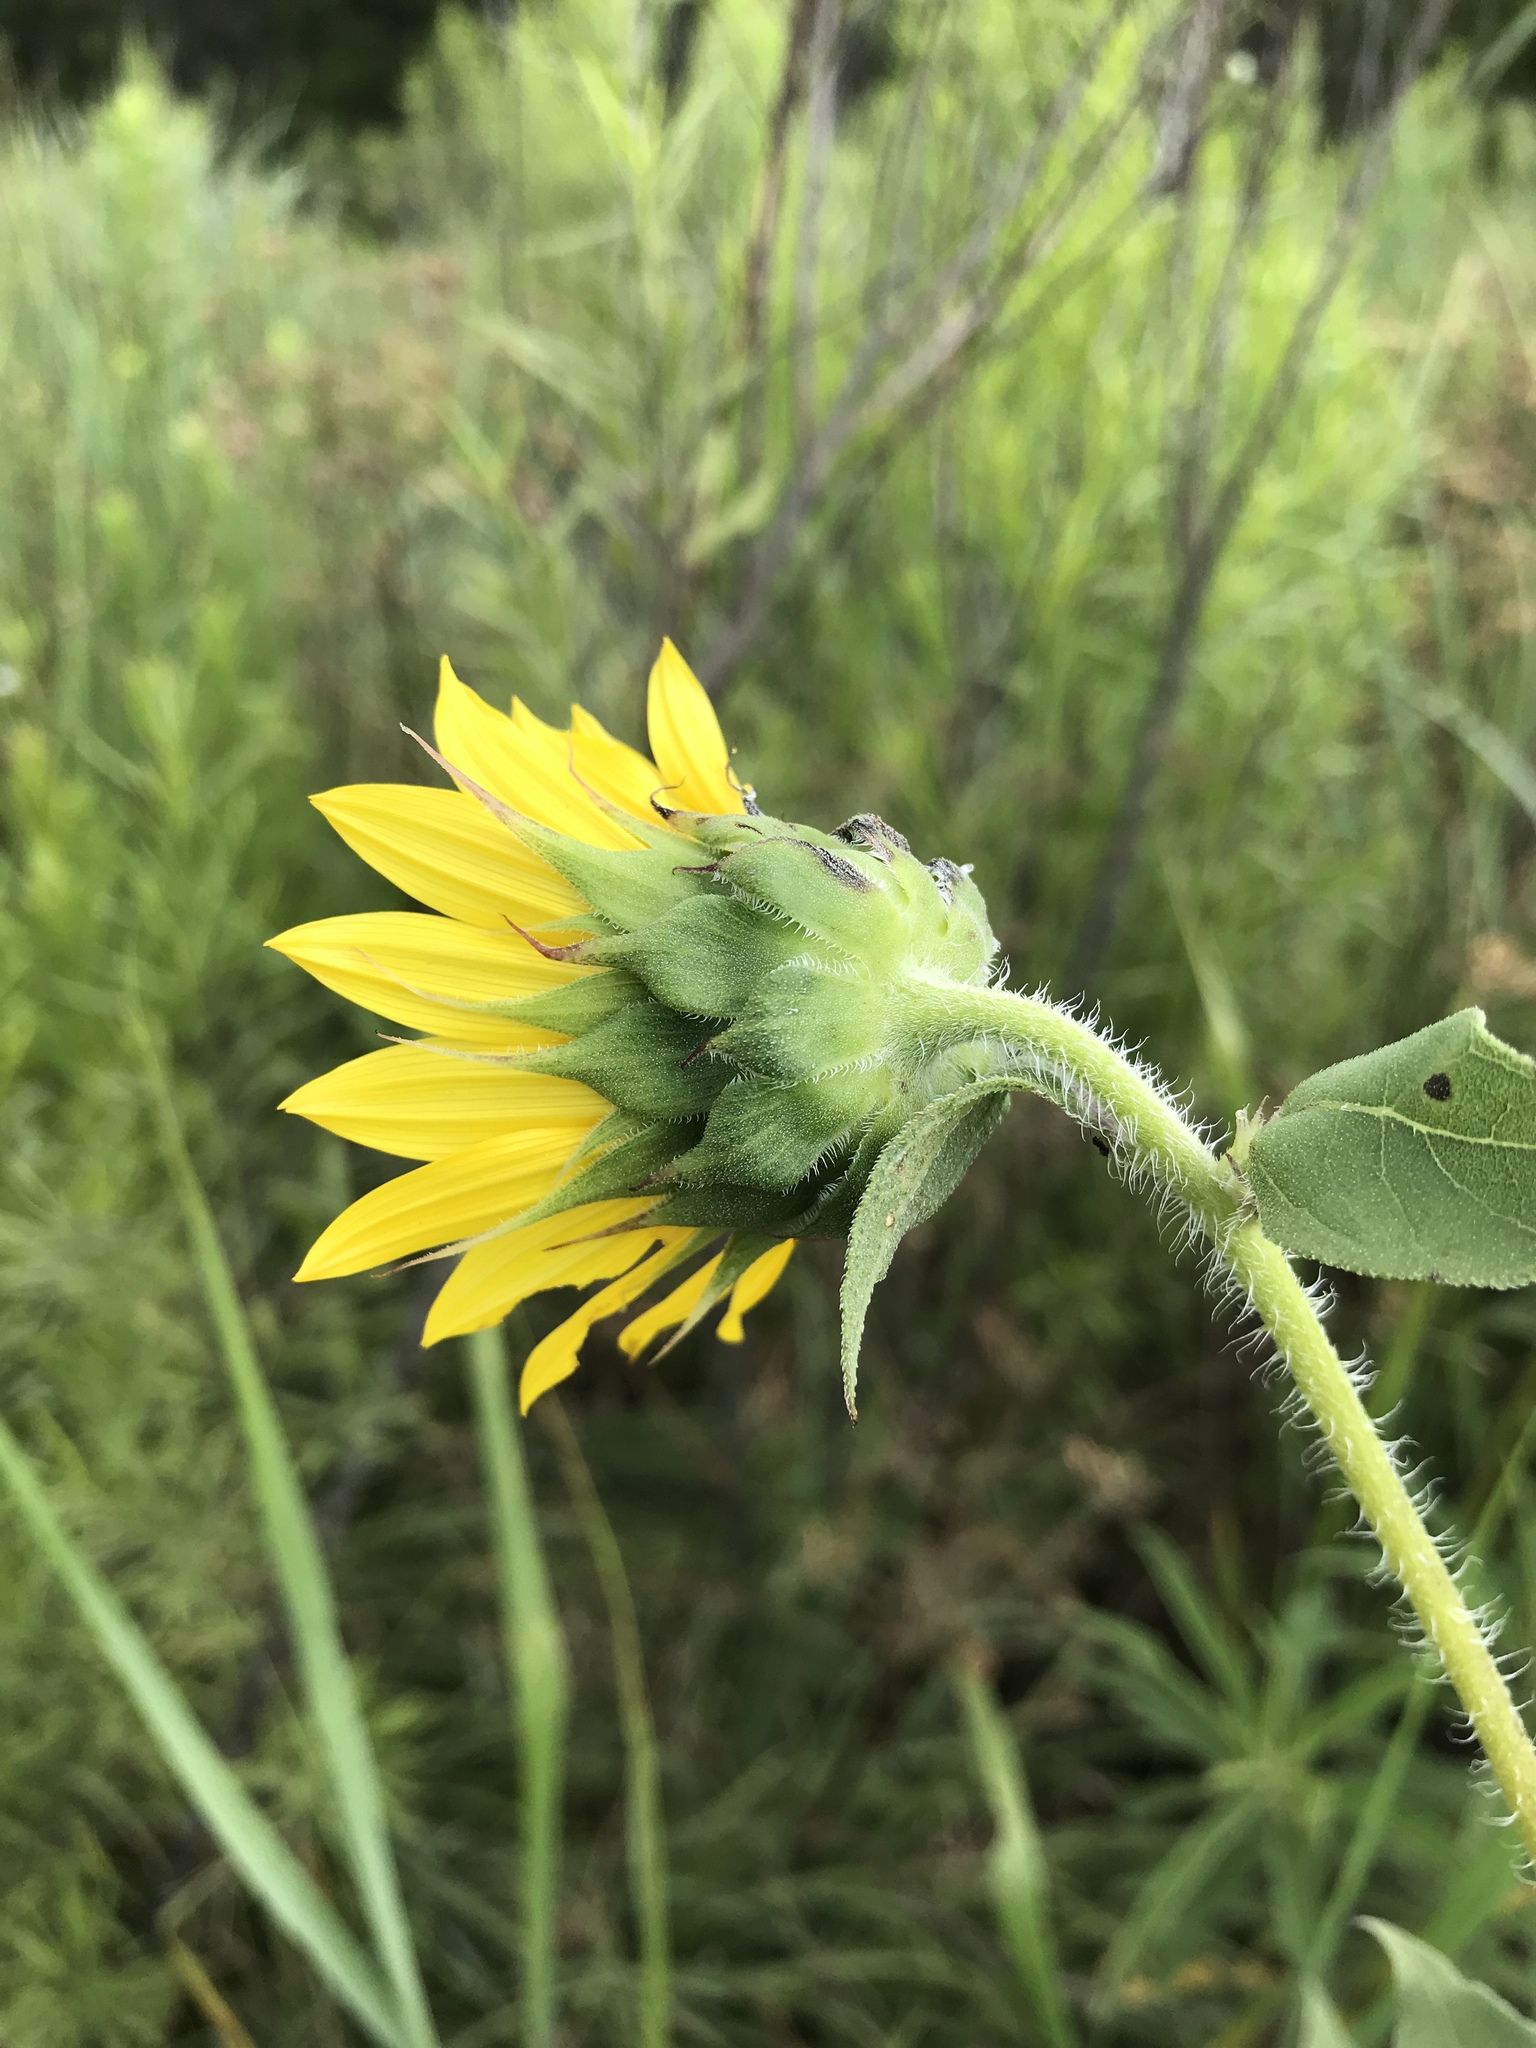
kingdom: Plantae
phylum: Tracheophyta
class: Magnoliopsida
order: Asterales
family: Asteraceae
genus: Helianthus
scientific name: Helianthus annuus
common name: Sunflower
